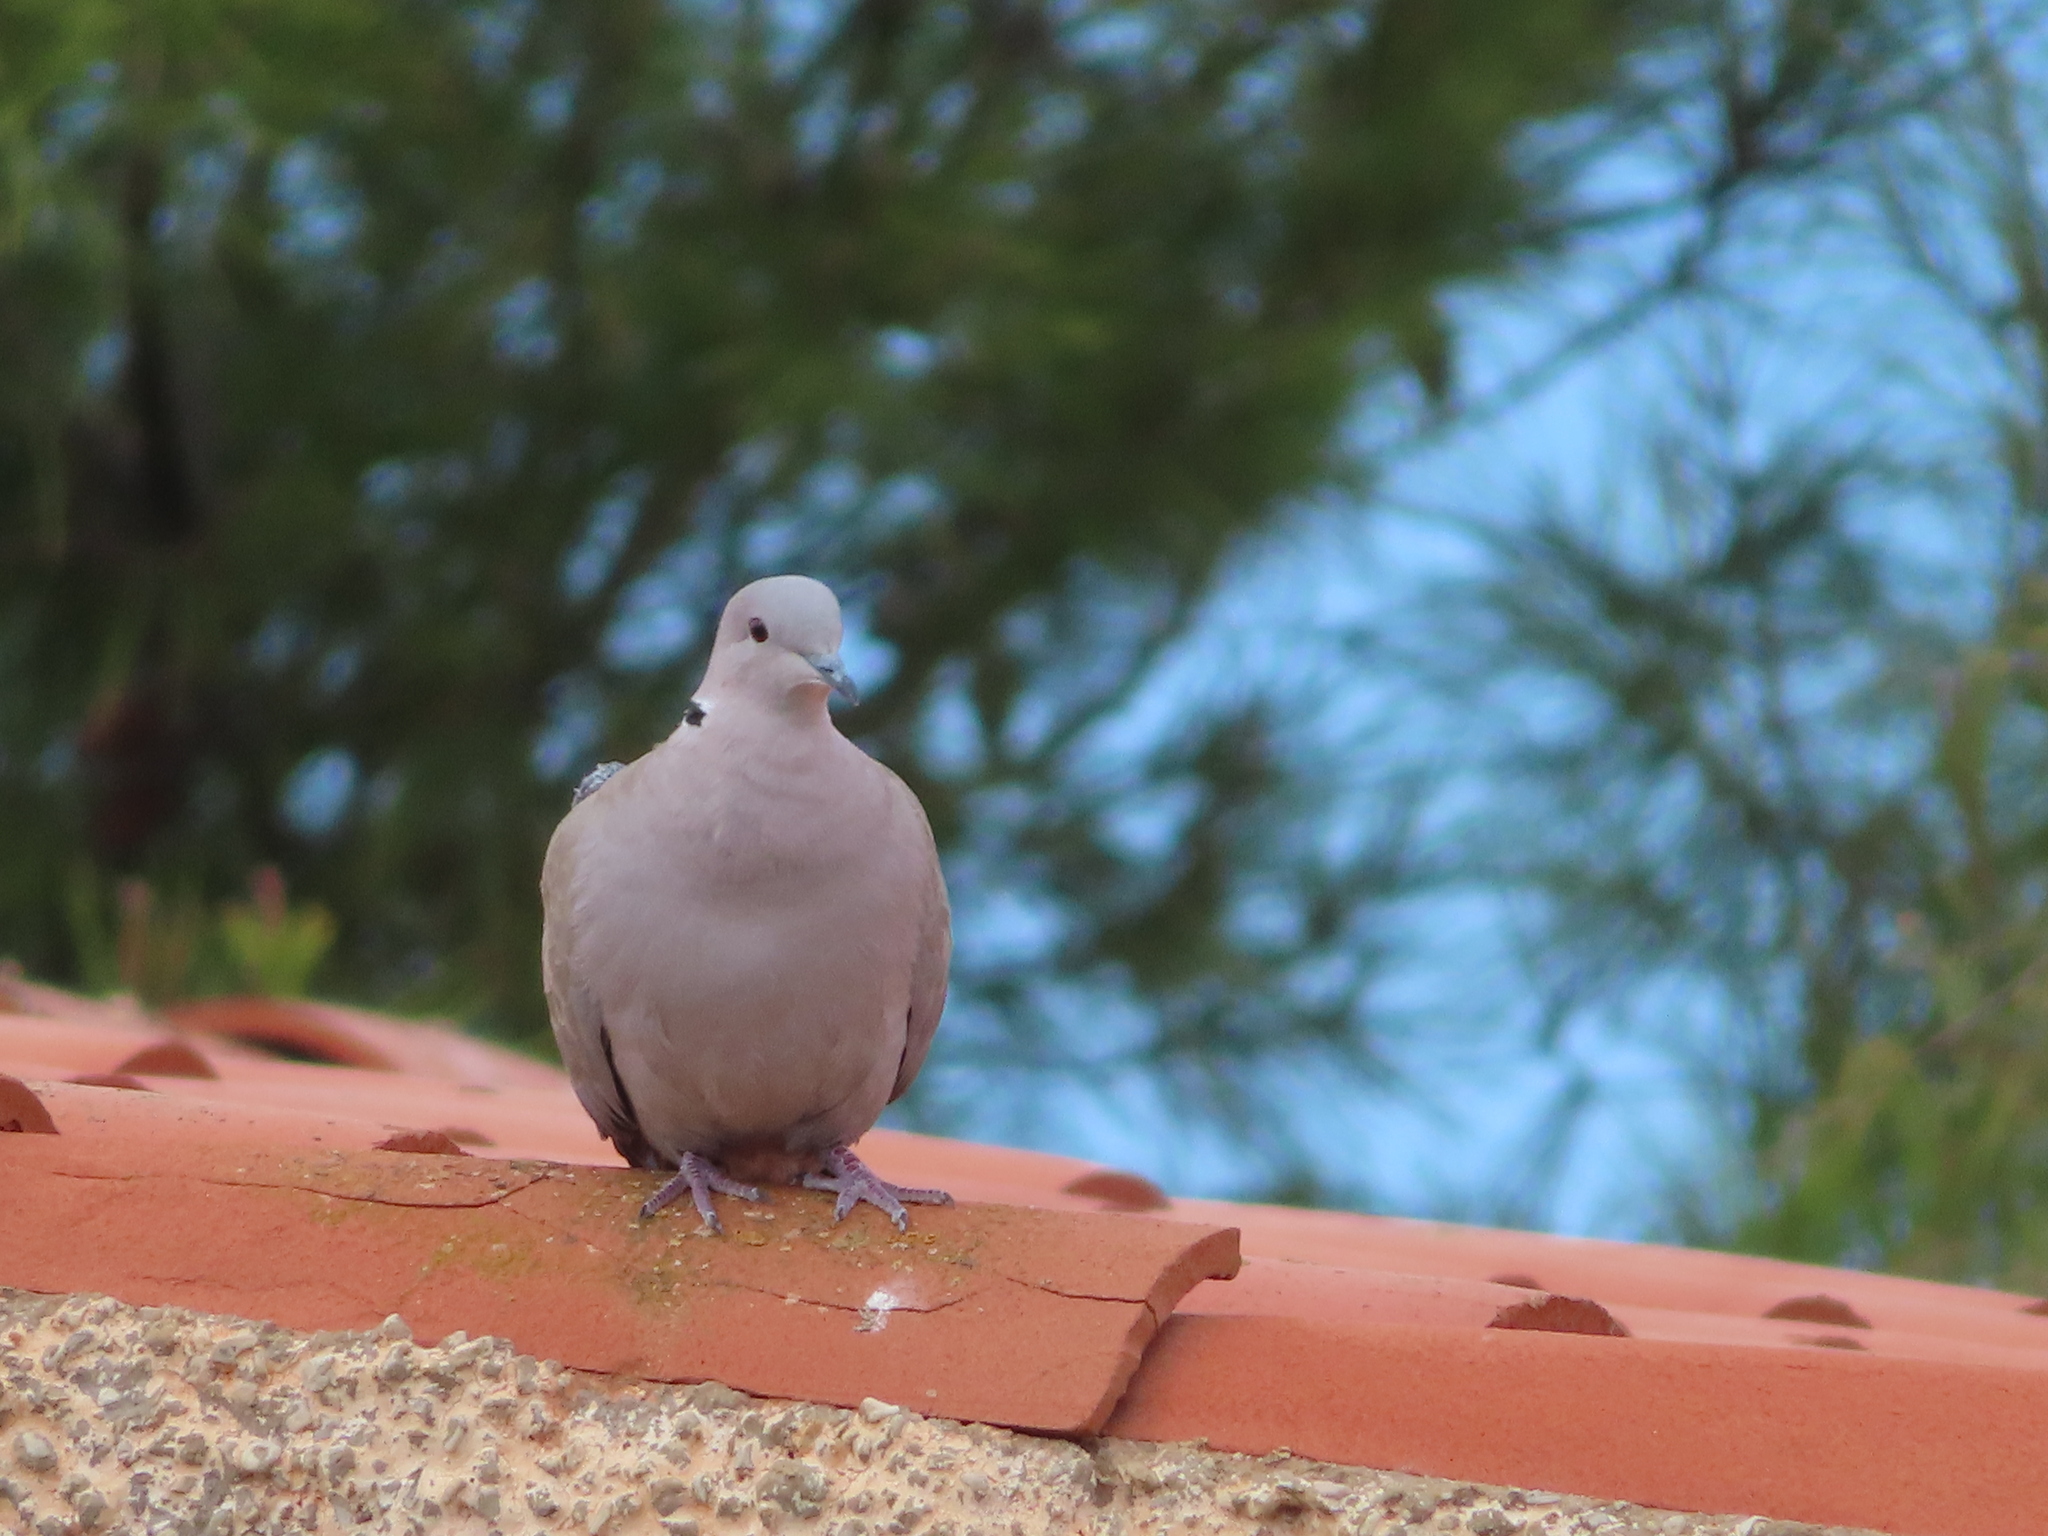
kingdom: Animalia
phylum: Chordata
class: Aves
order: Columbiformes
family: Columbidae
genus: Streptopelia
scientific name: Streptopelia decaocto
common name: Eurasian collared dove
